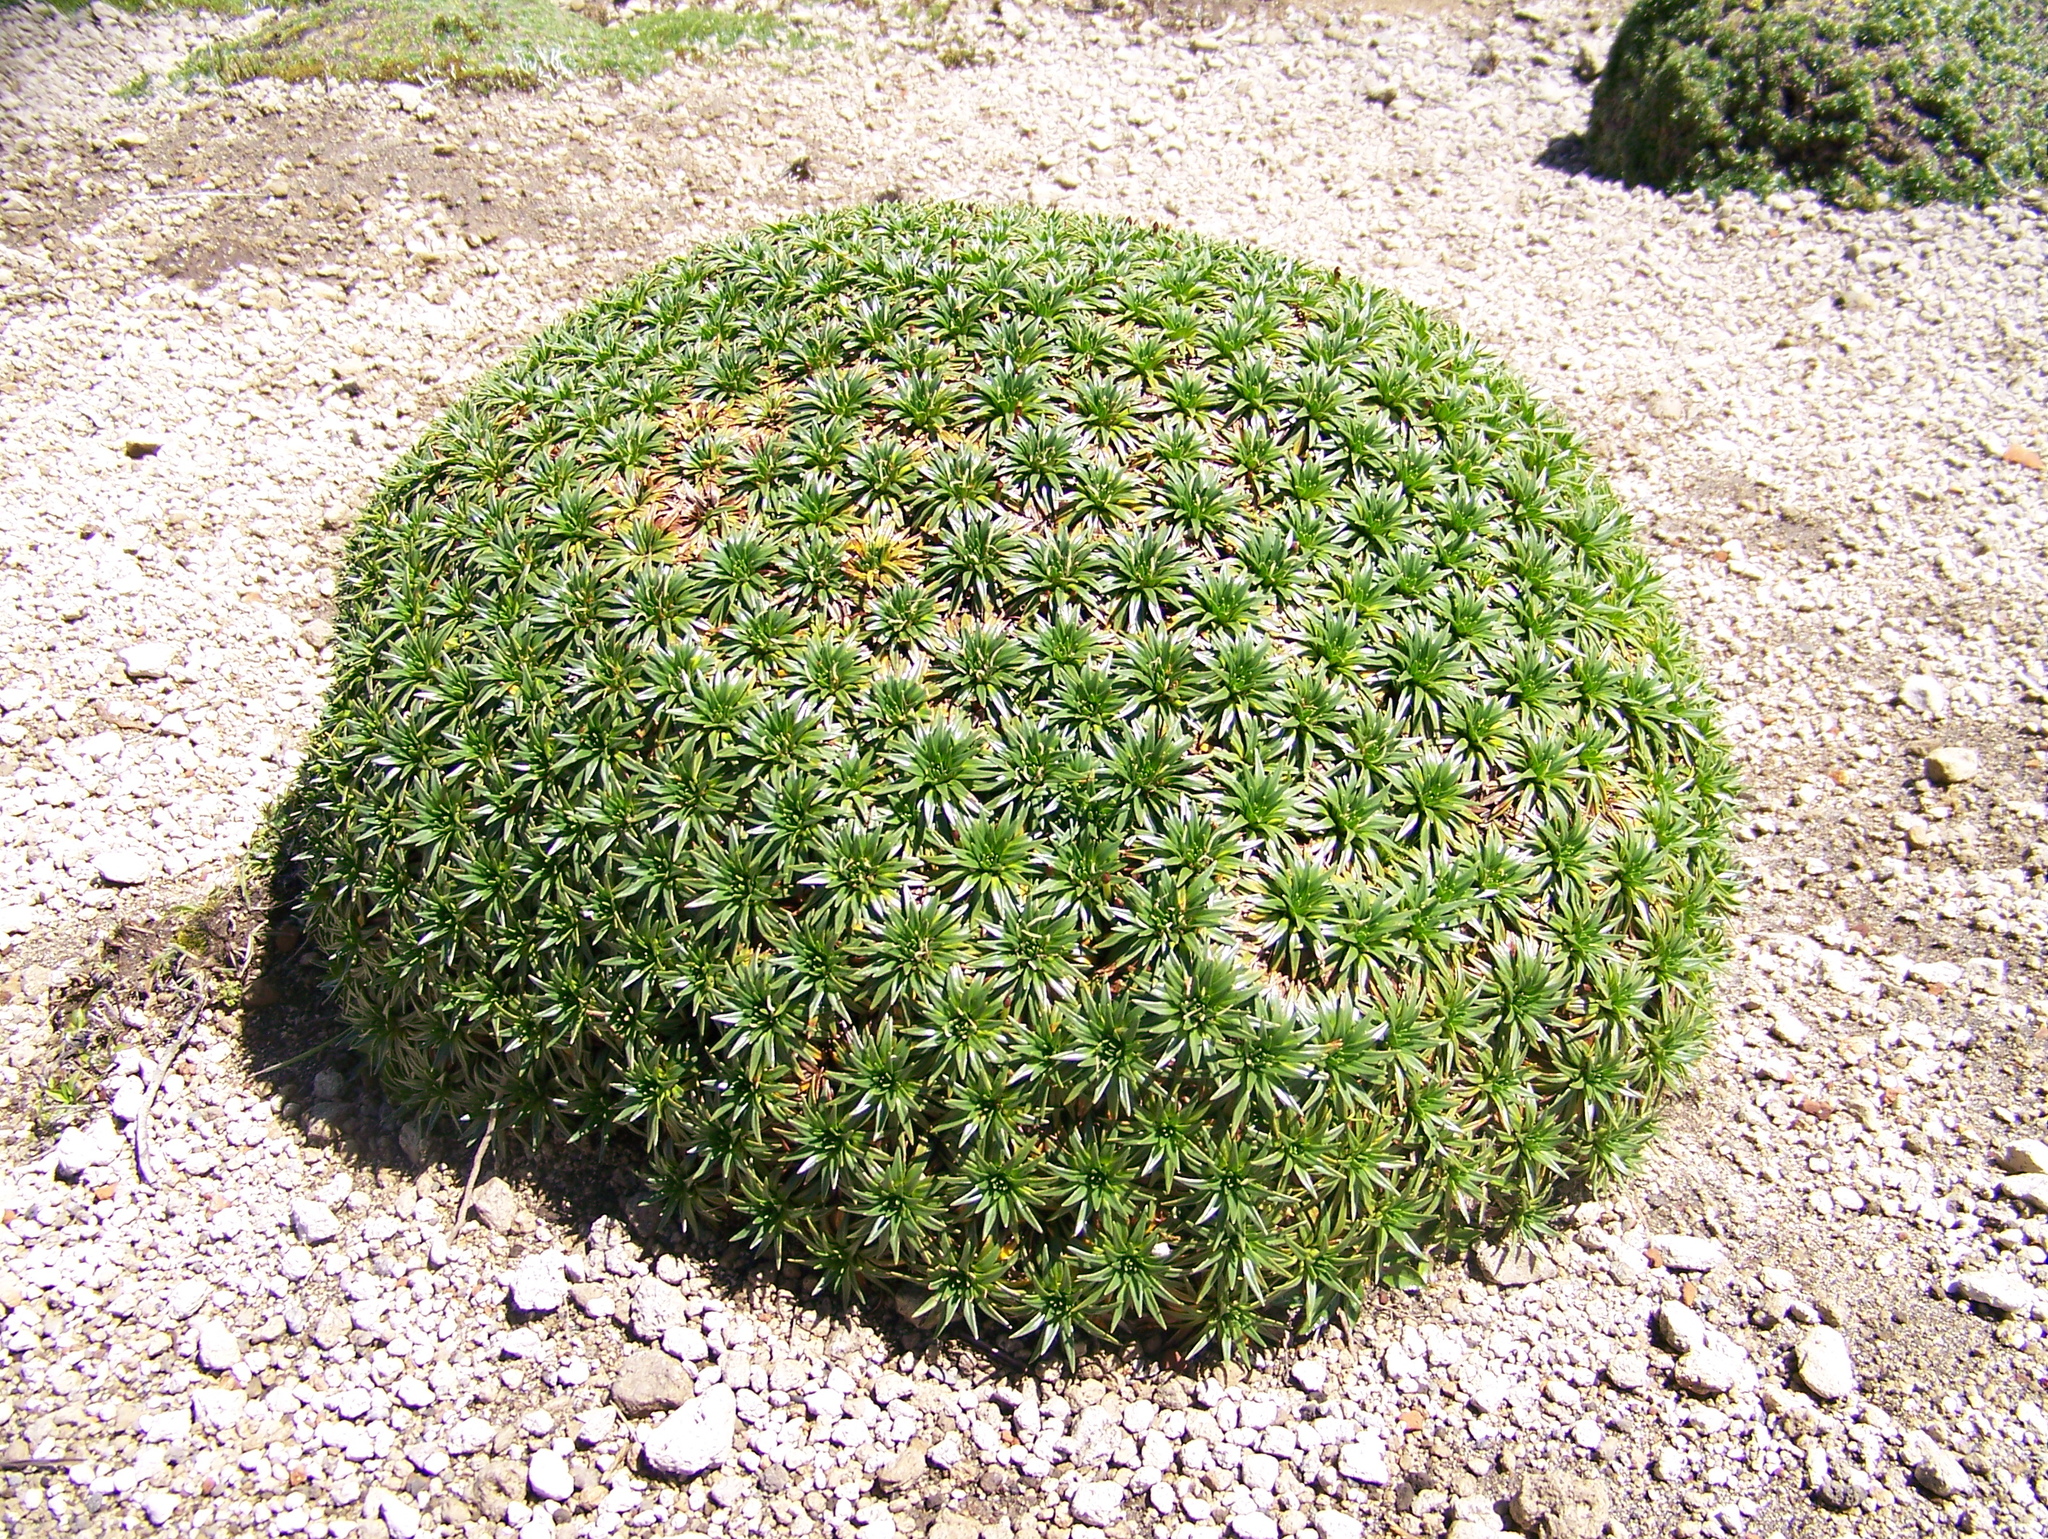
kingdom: Plantae
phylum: Tracheophyta
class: Magnoliopsida
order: Lamiales
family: Plantaginaceae
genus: Plantago
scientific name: Plantago rigida
